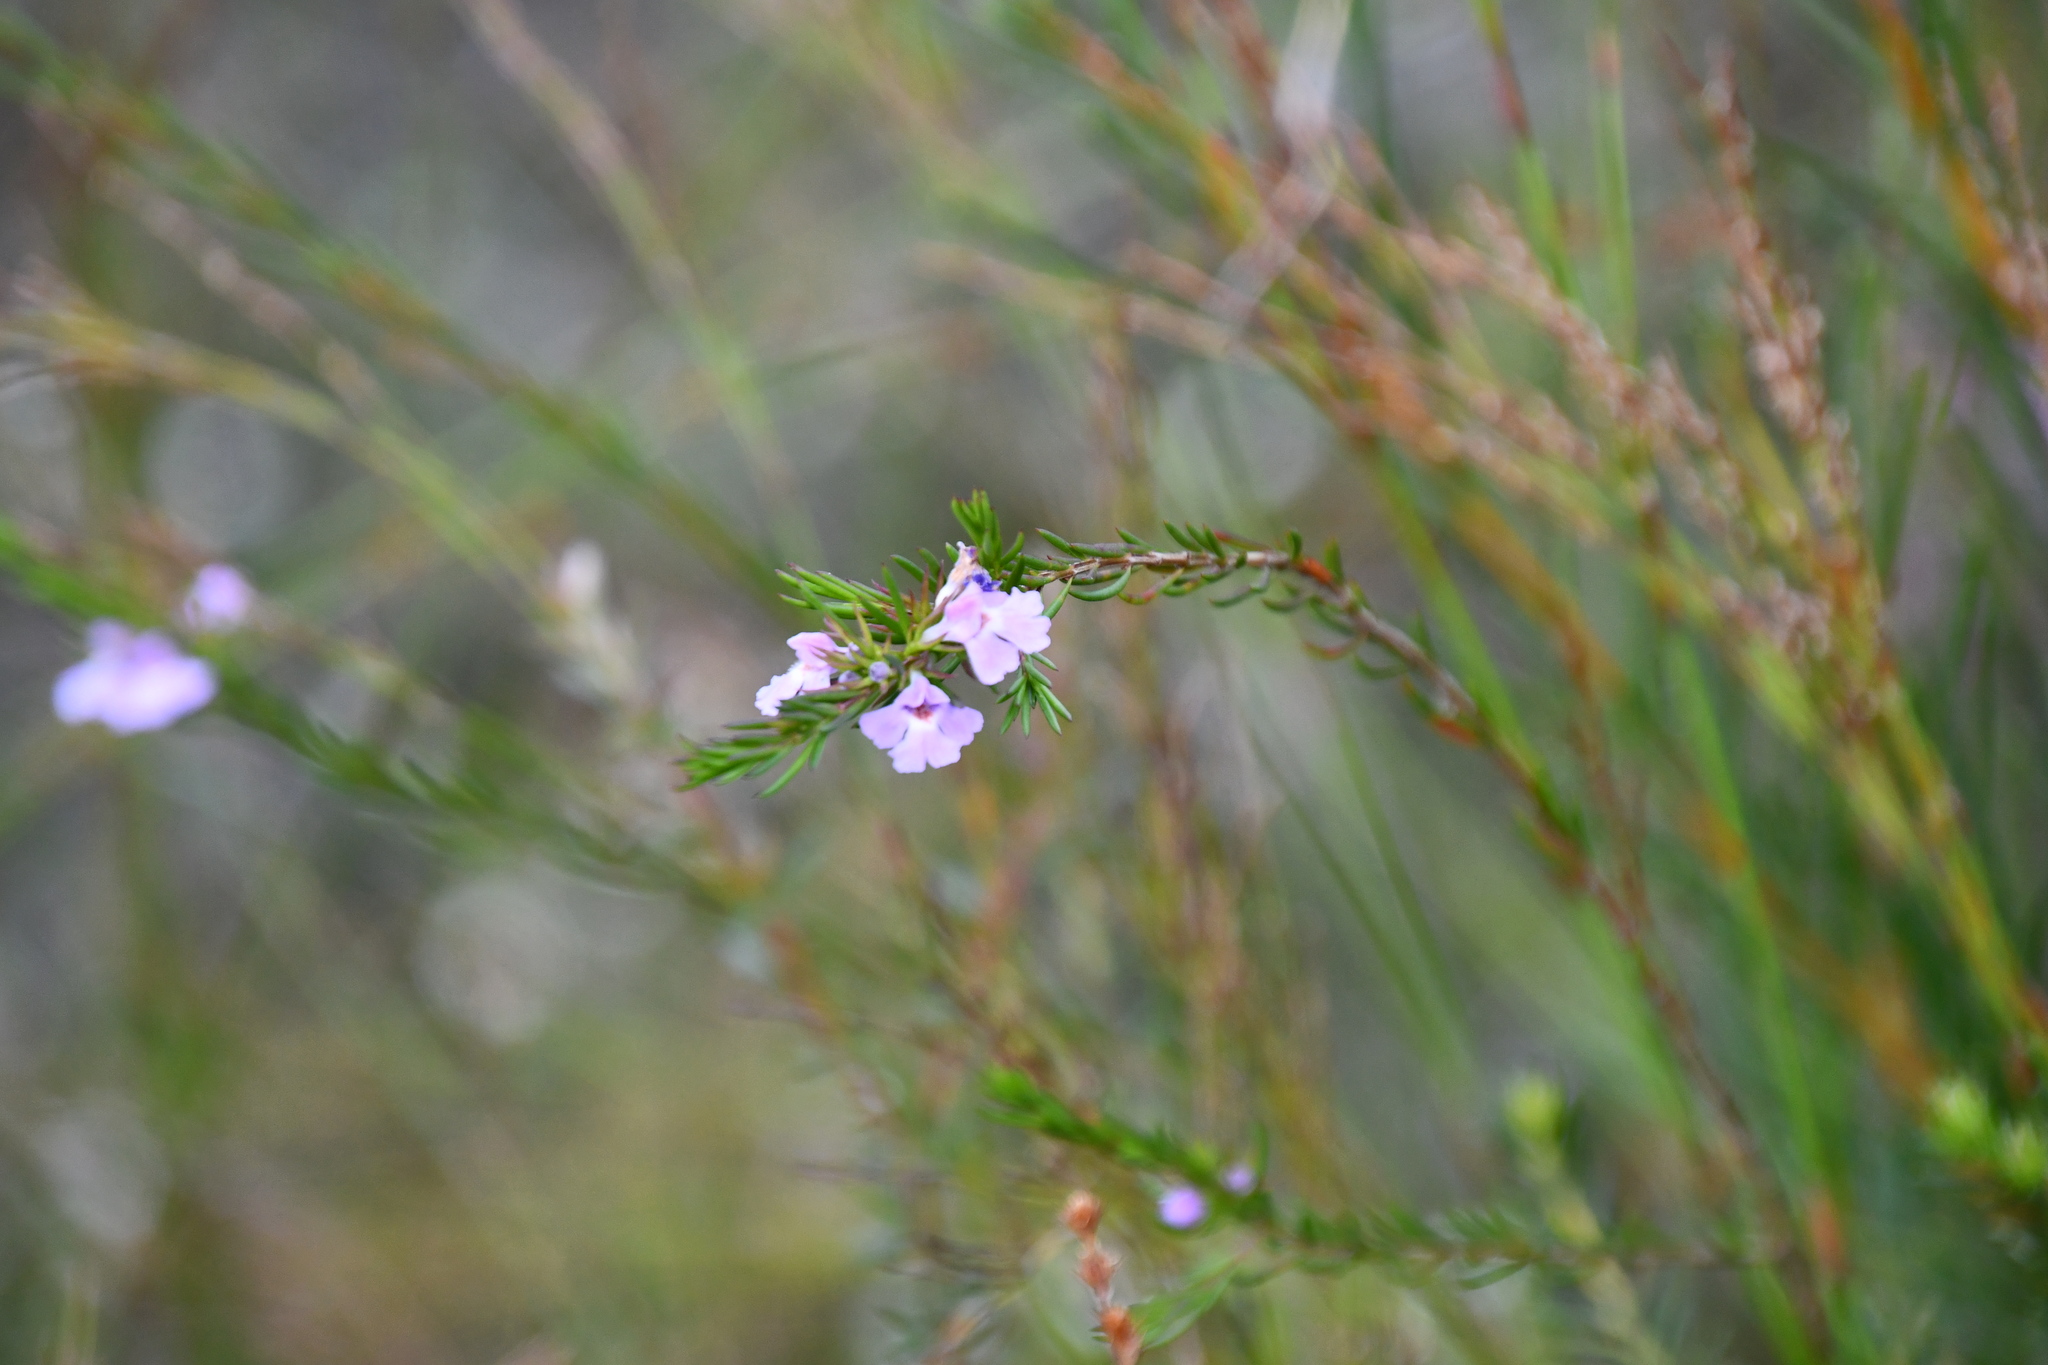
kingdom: Plantae
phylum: Tracheophyta
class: Magnoliopsida
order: Lamiales
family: Lamiaceae
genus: Hemigenia
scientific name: Hemigenia purpurea
